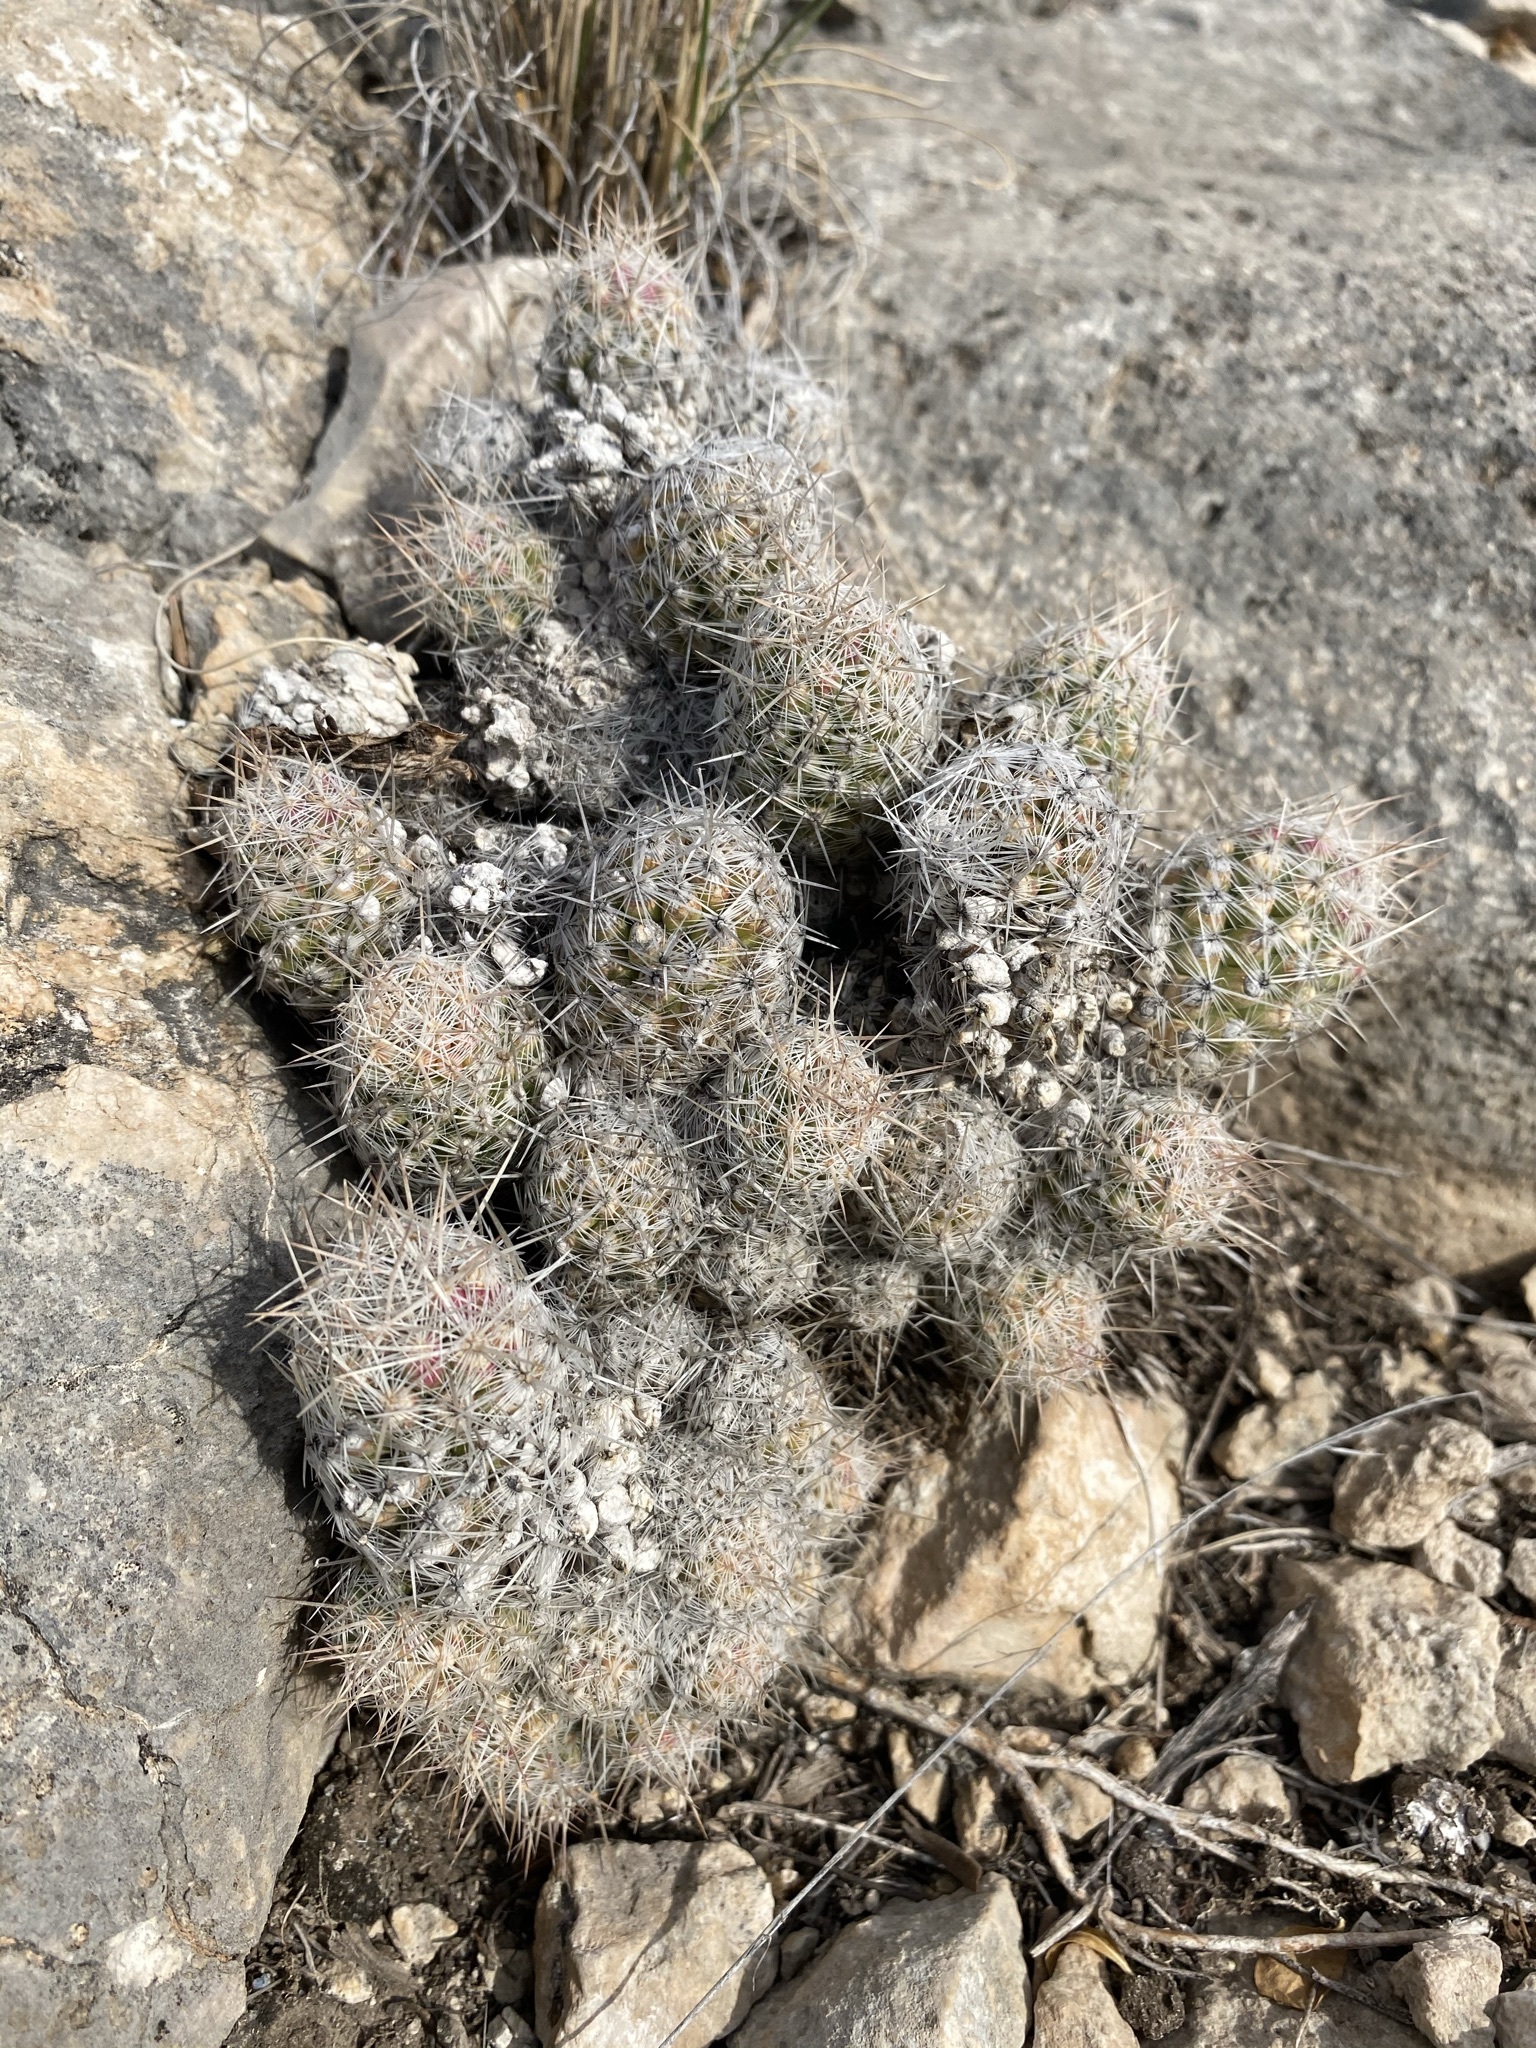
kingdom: Plantae
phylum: Tracheophyta
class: Magnoliopsida
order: Caryophyllales
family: Cactaceae
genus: Pelecyphora
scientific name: Pelecyphora tuberculosa
